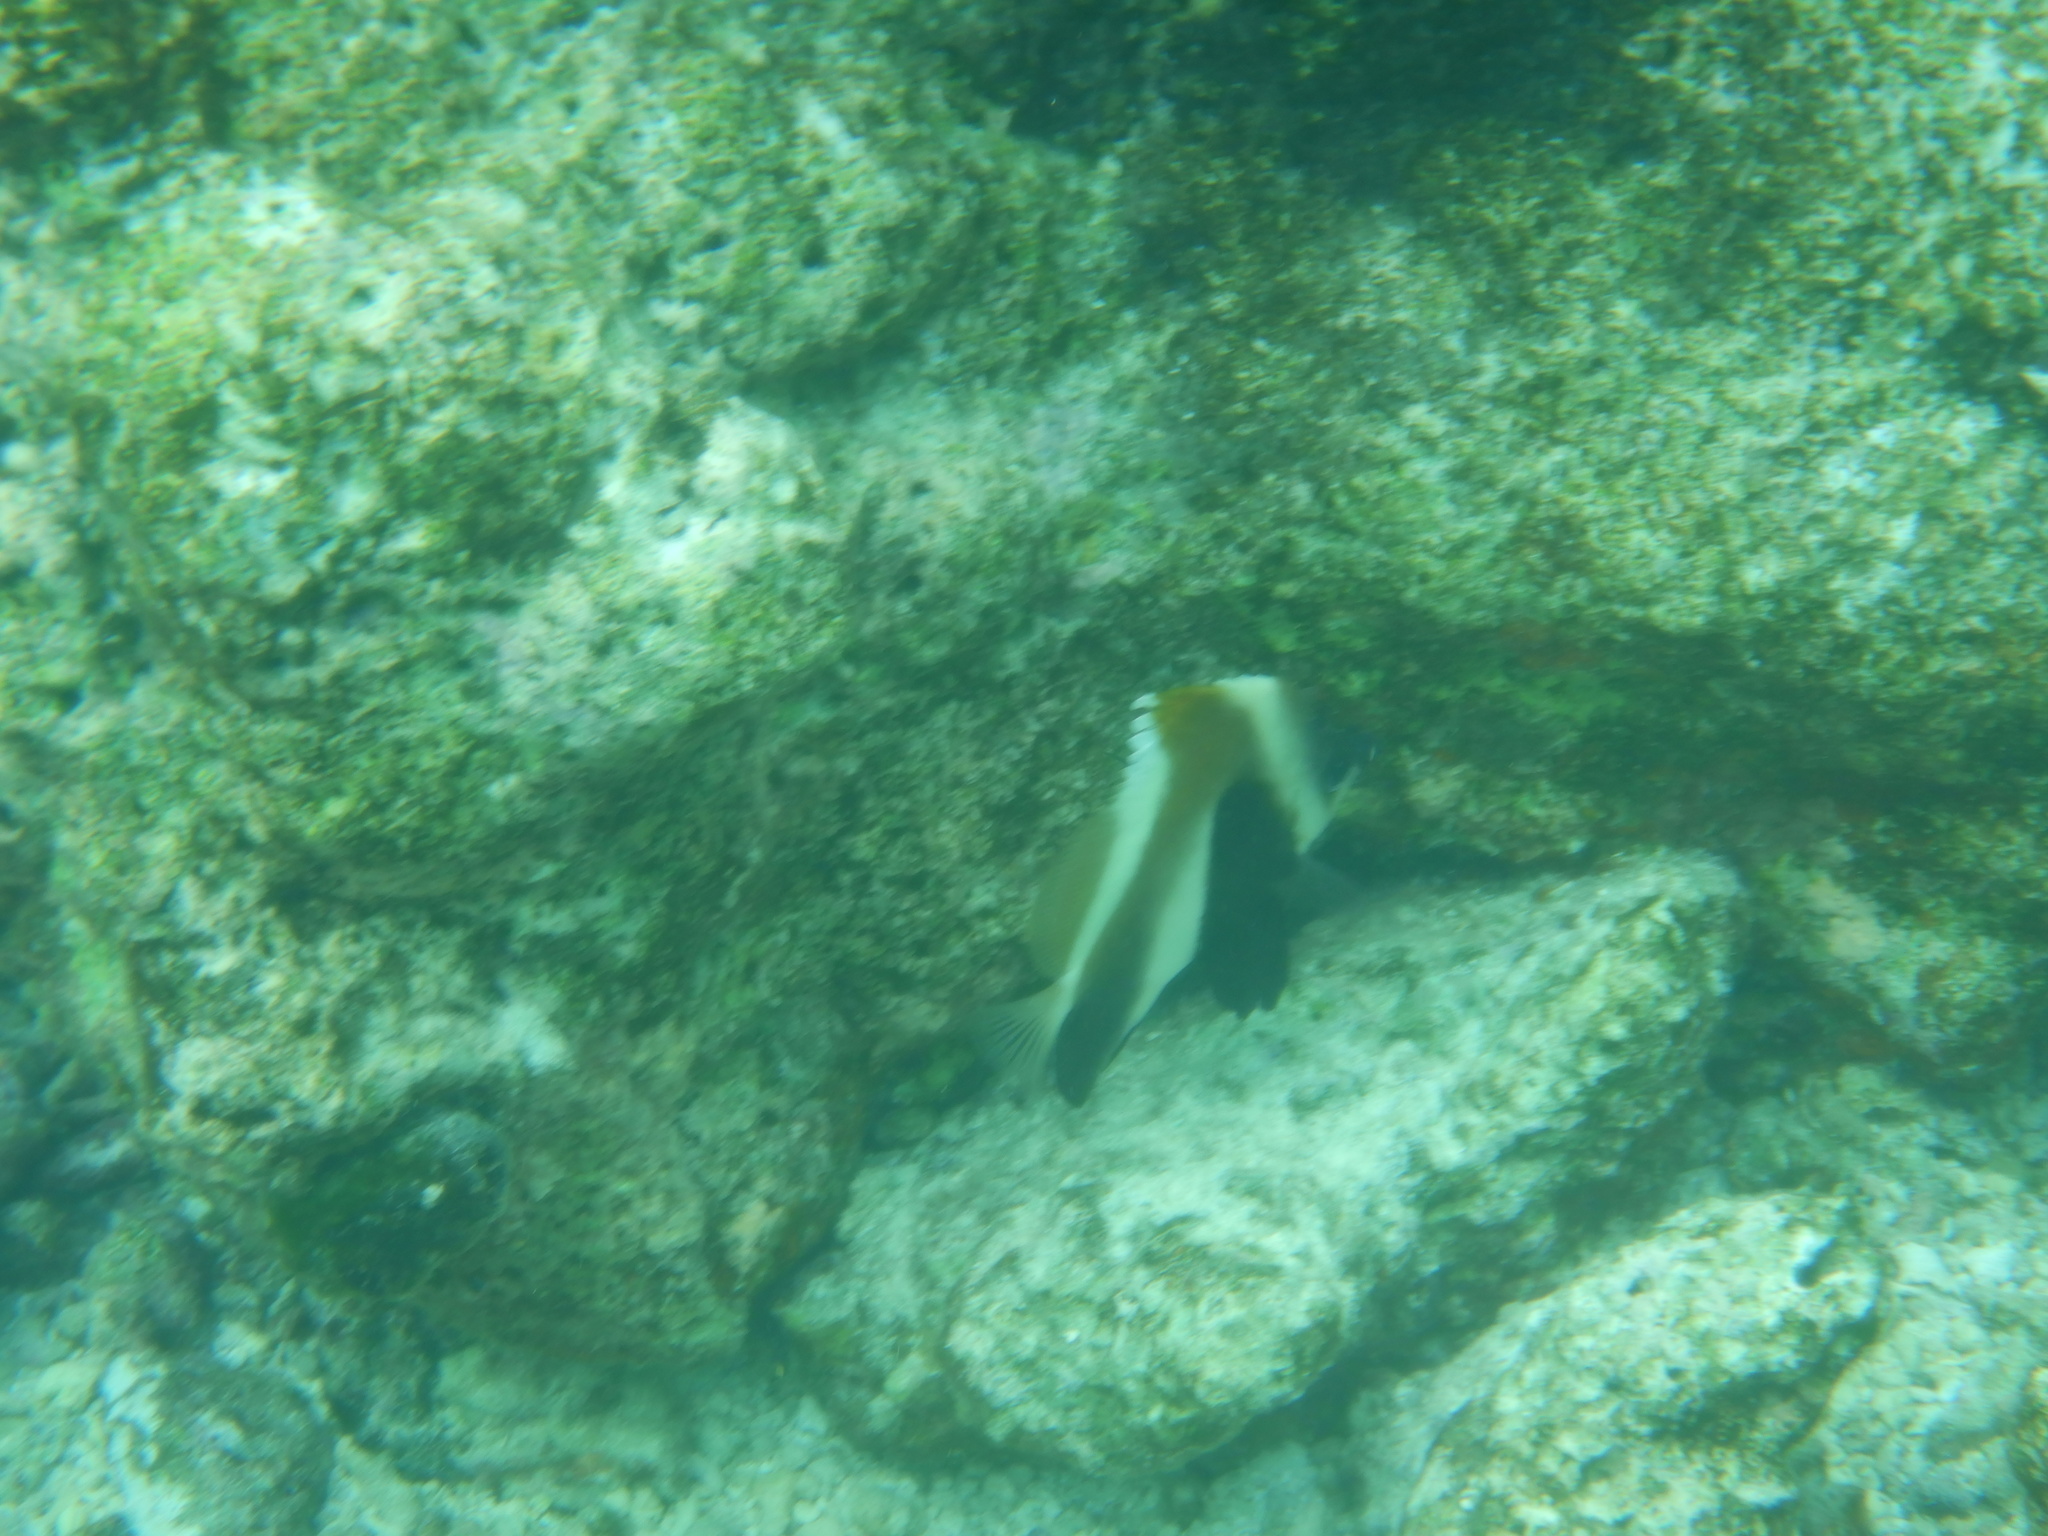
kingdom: Animalia
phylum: Chordata
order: Perciformes
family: Chaetodontidae
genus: Heniochus
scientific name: Heniochus pleurotaenia
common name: Indian ocean bannerfish
